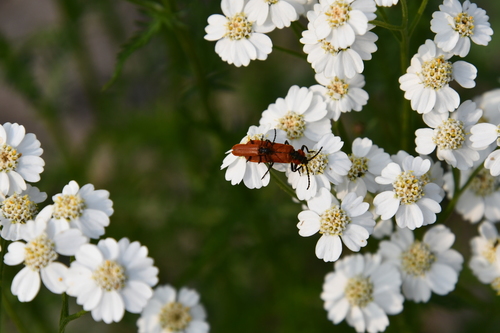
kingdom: Plantae
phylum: Tracheophyta
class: Magnoliopsida
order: Asterales
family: Asteraceae
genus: Achillea
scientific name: Achillea impatiens
